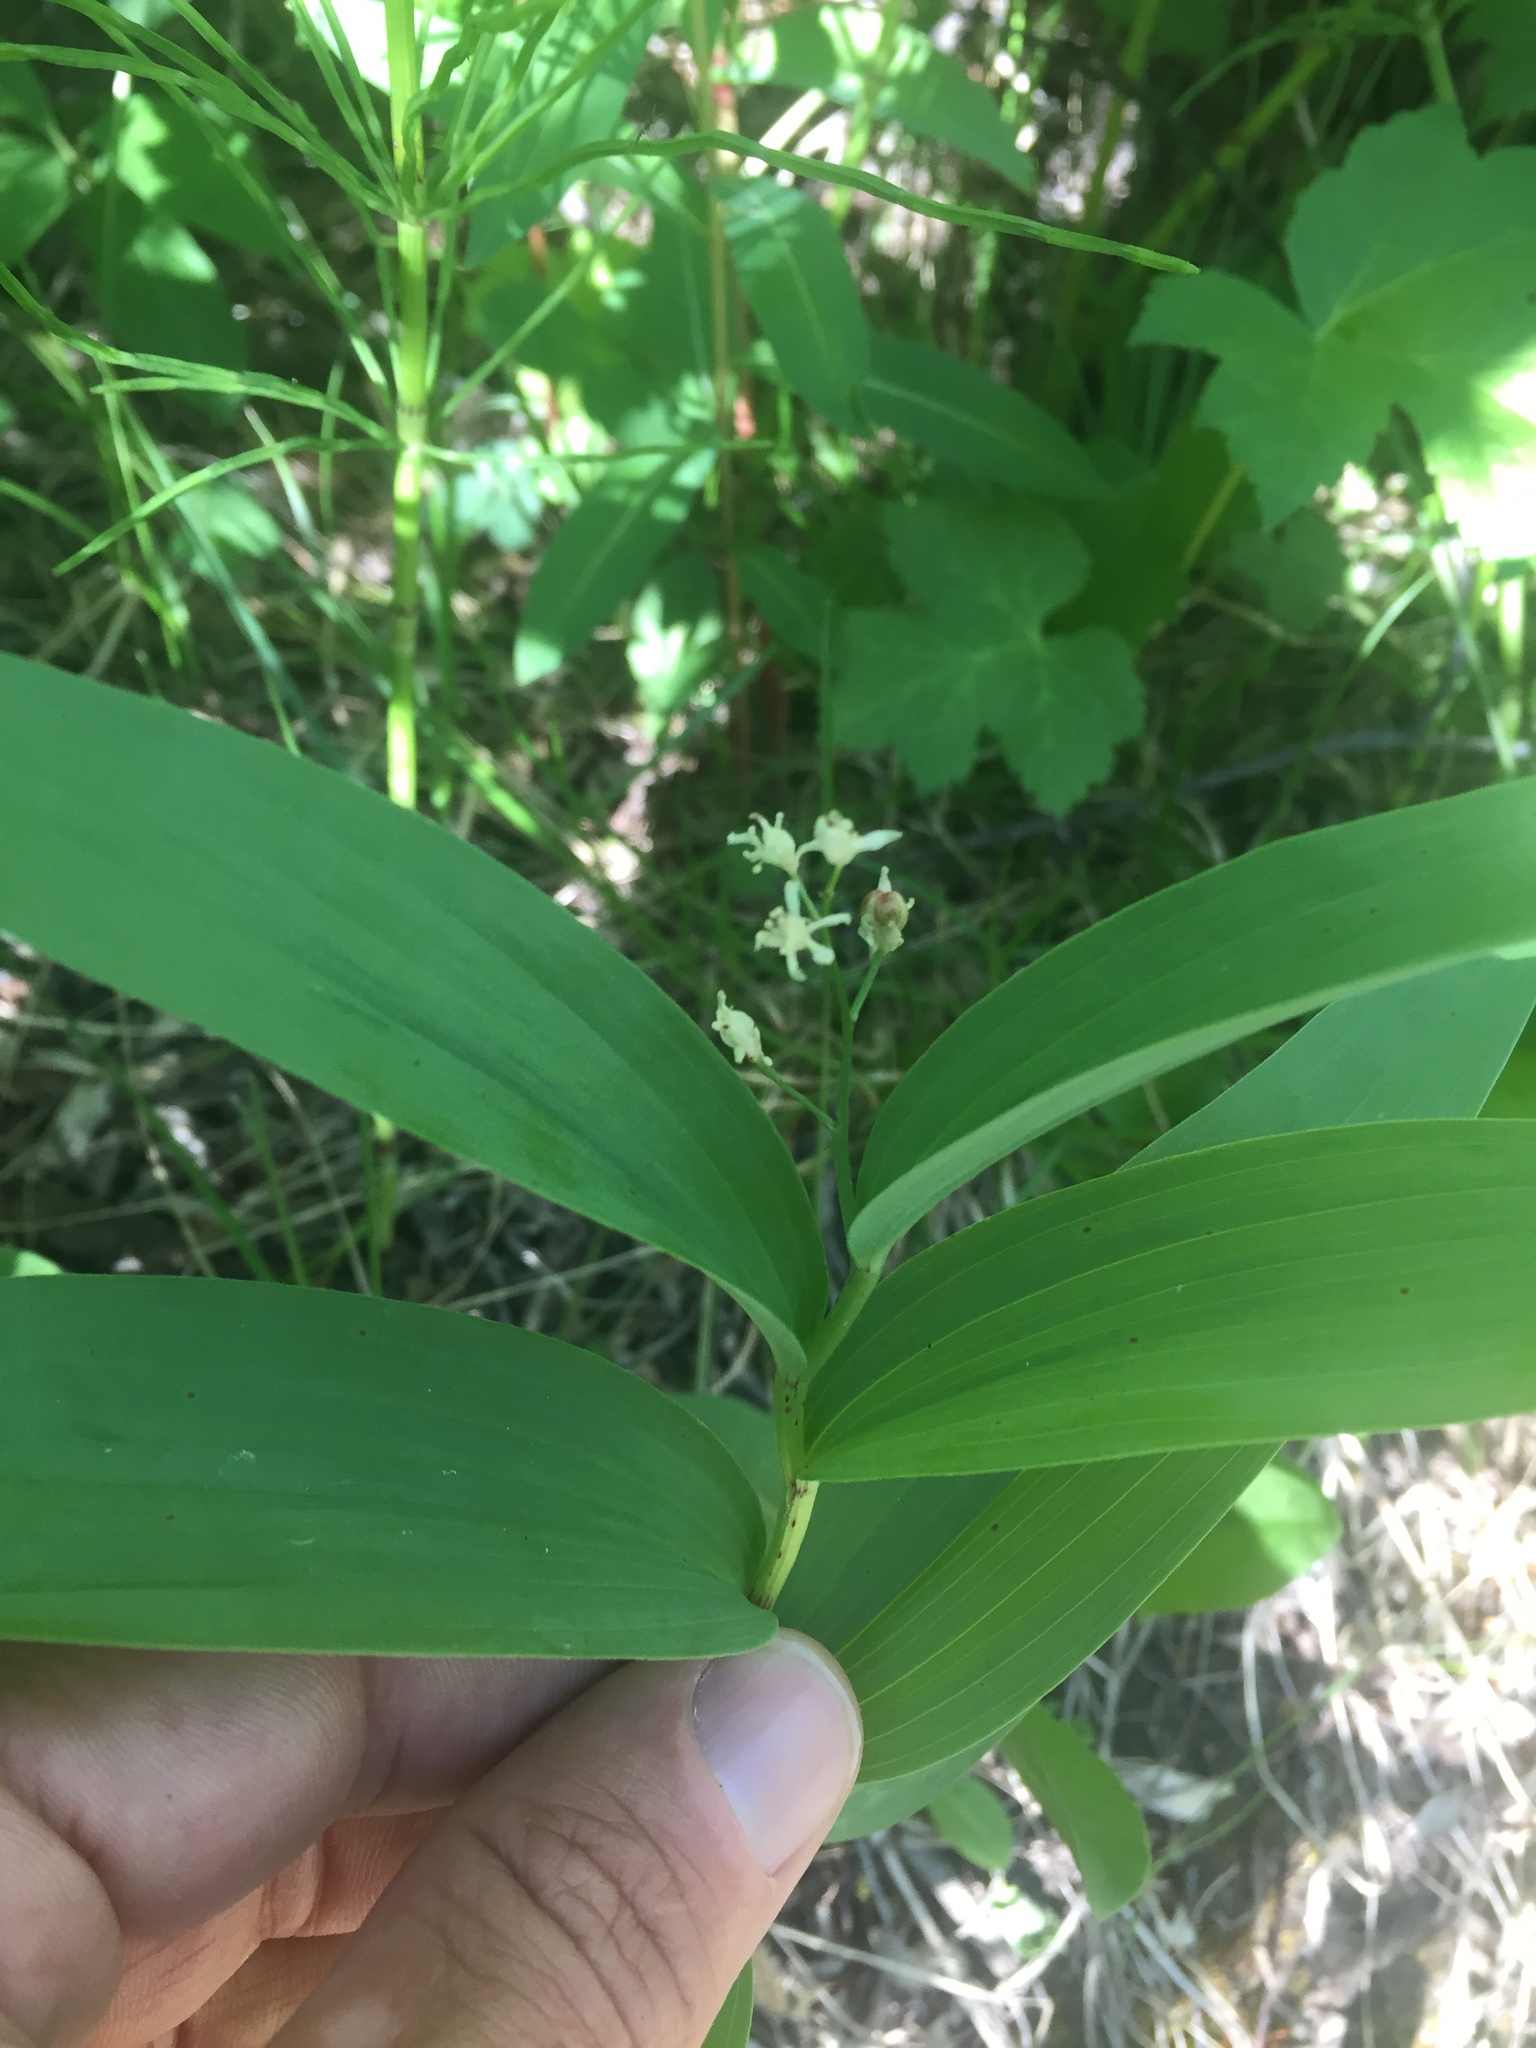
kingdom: Plantae
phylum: Tracheophyta
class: Liliopsida
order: Asparagales
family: Asparagaceae
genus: Maianthemum
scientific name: Maianthemum stellatum
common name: Little false solomon's seal
